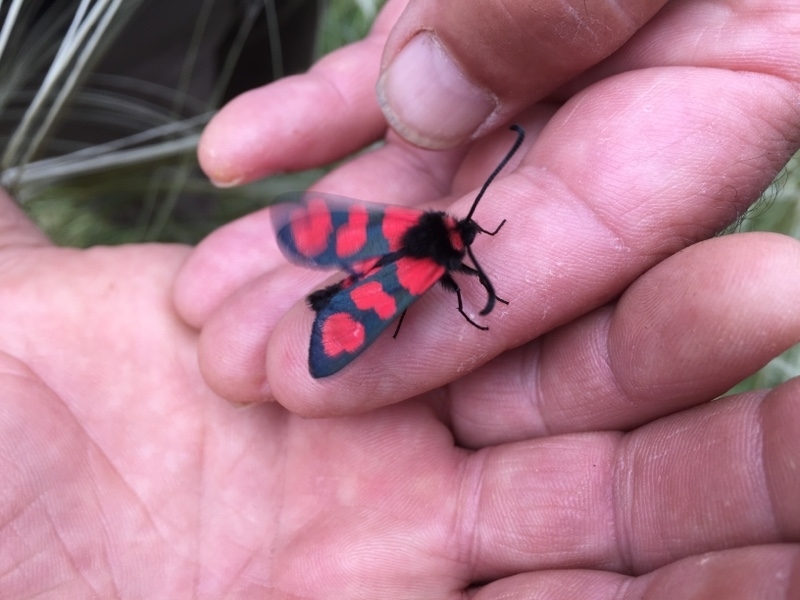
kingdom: Animalia
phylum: Arthropoda
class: Insecta
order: Lepidoptera
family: Zygaenidae
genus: Zygaena
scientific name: Zygaena cuvieri
